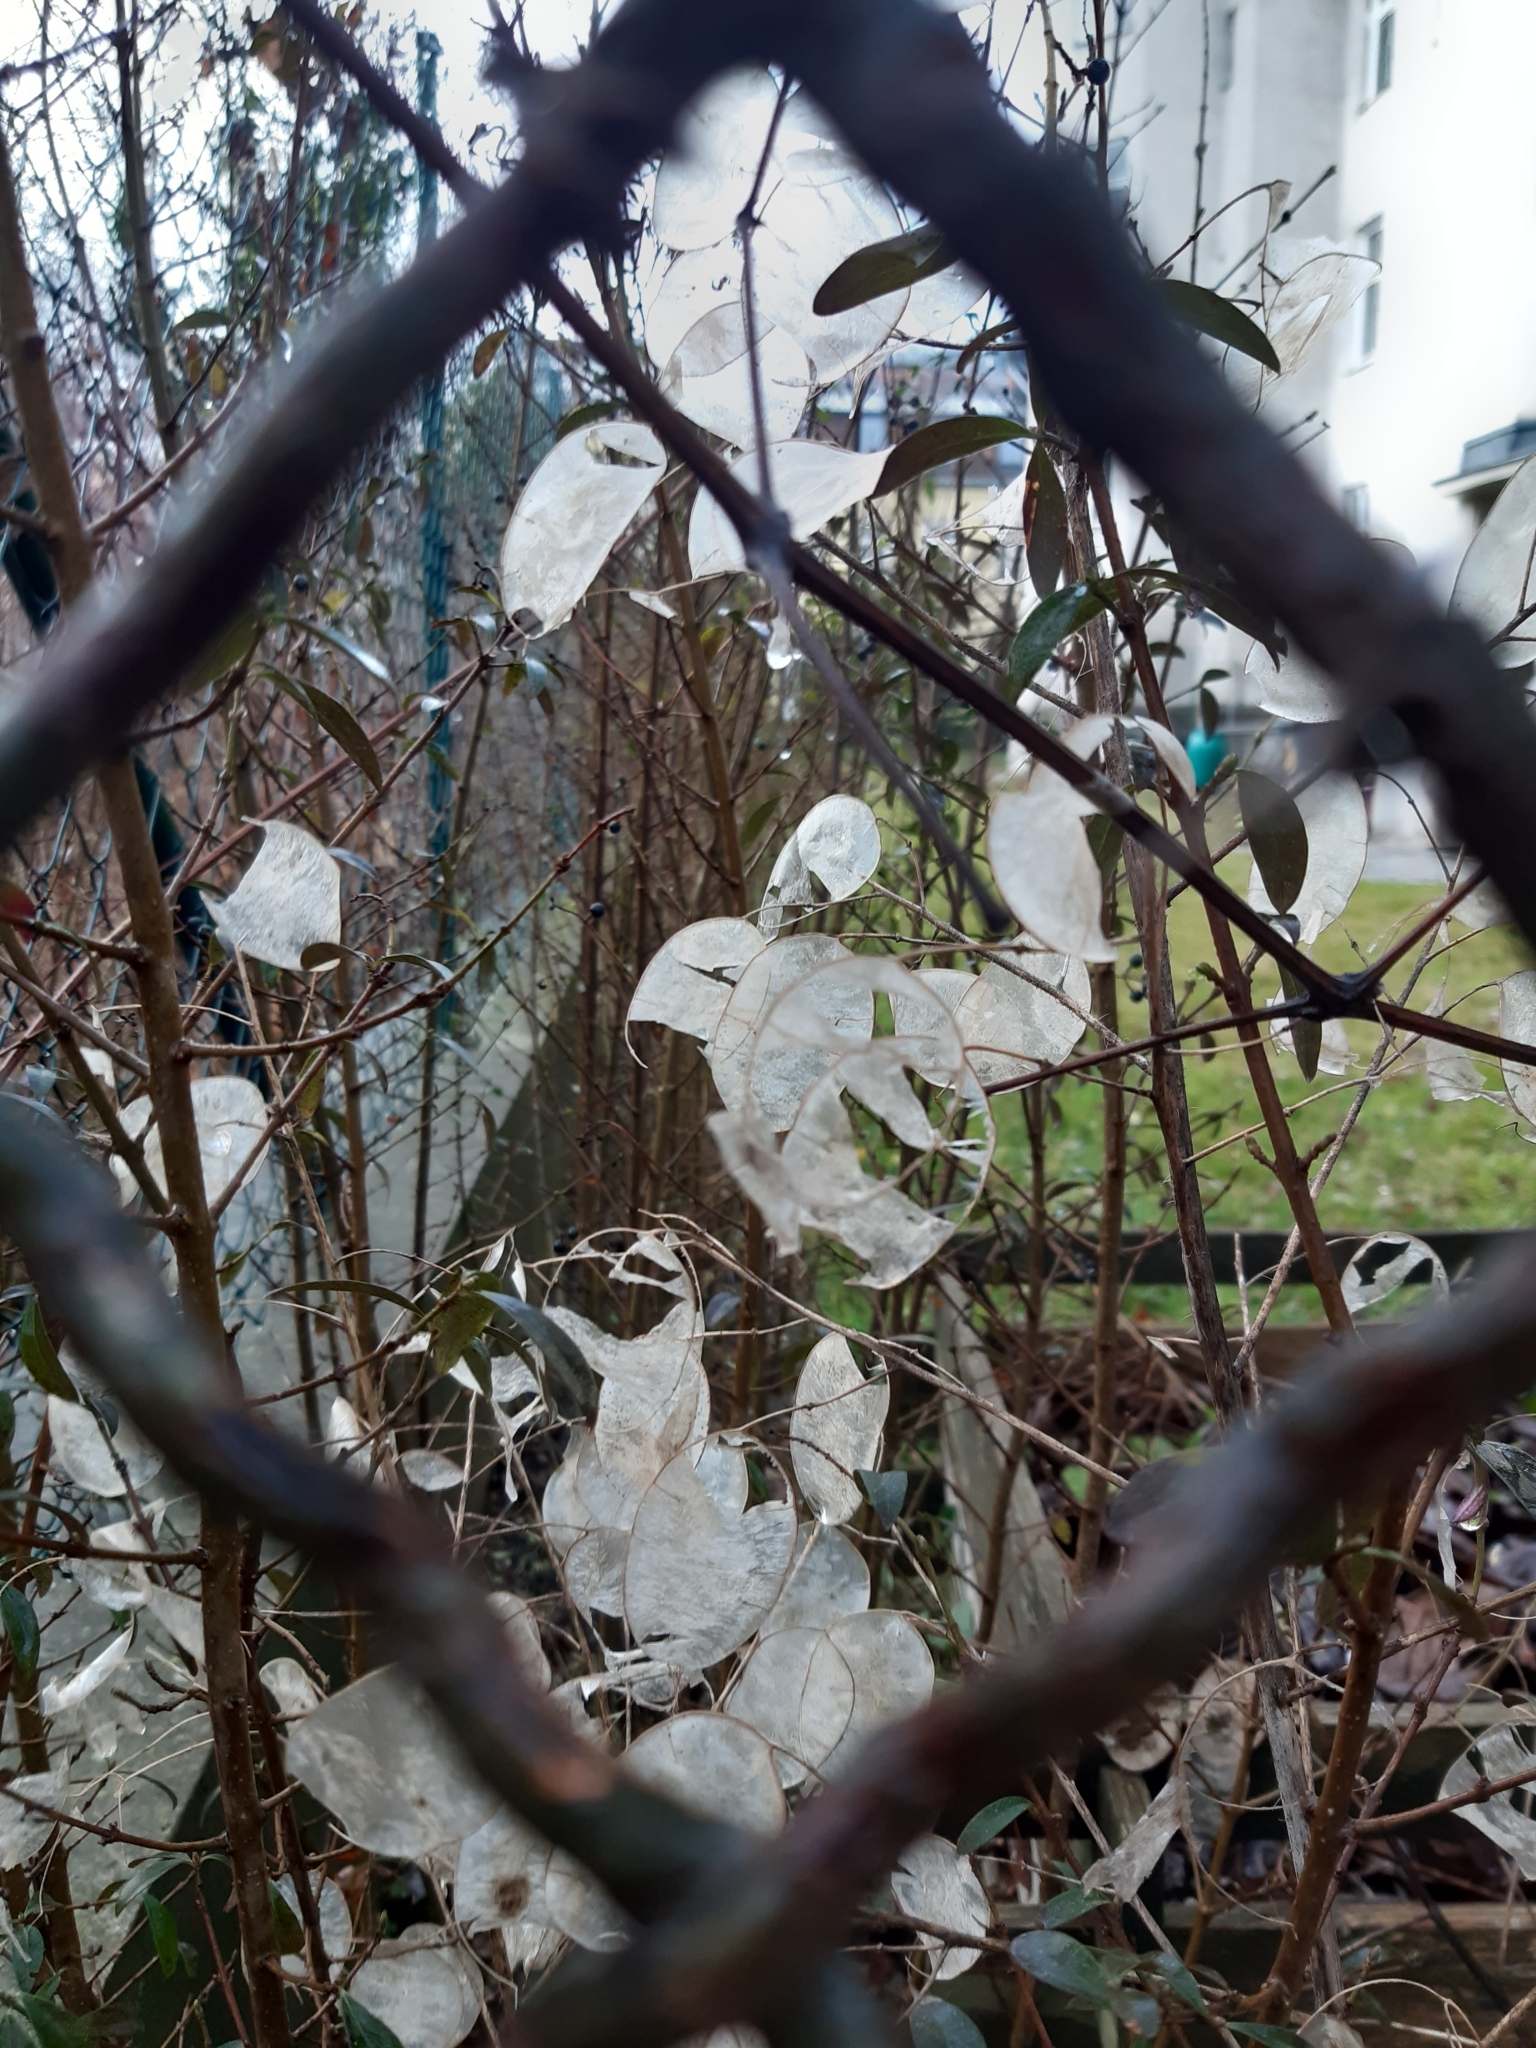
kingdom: Plantae
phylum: Tracheophyta
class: Magnoliopsida
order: Brassicales
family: Brassicaceae
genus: Lunaria
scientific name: Lunaria annua
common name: Honesty
